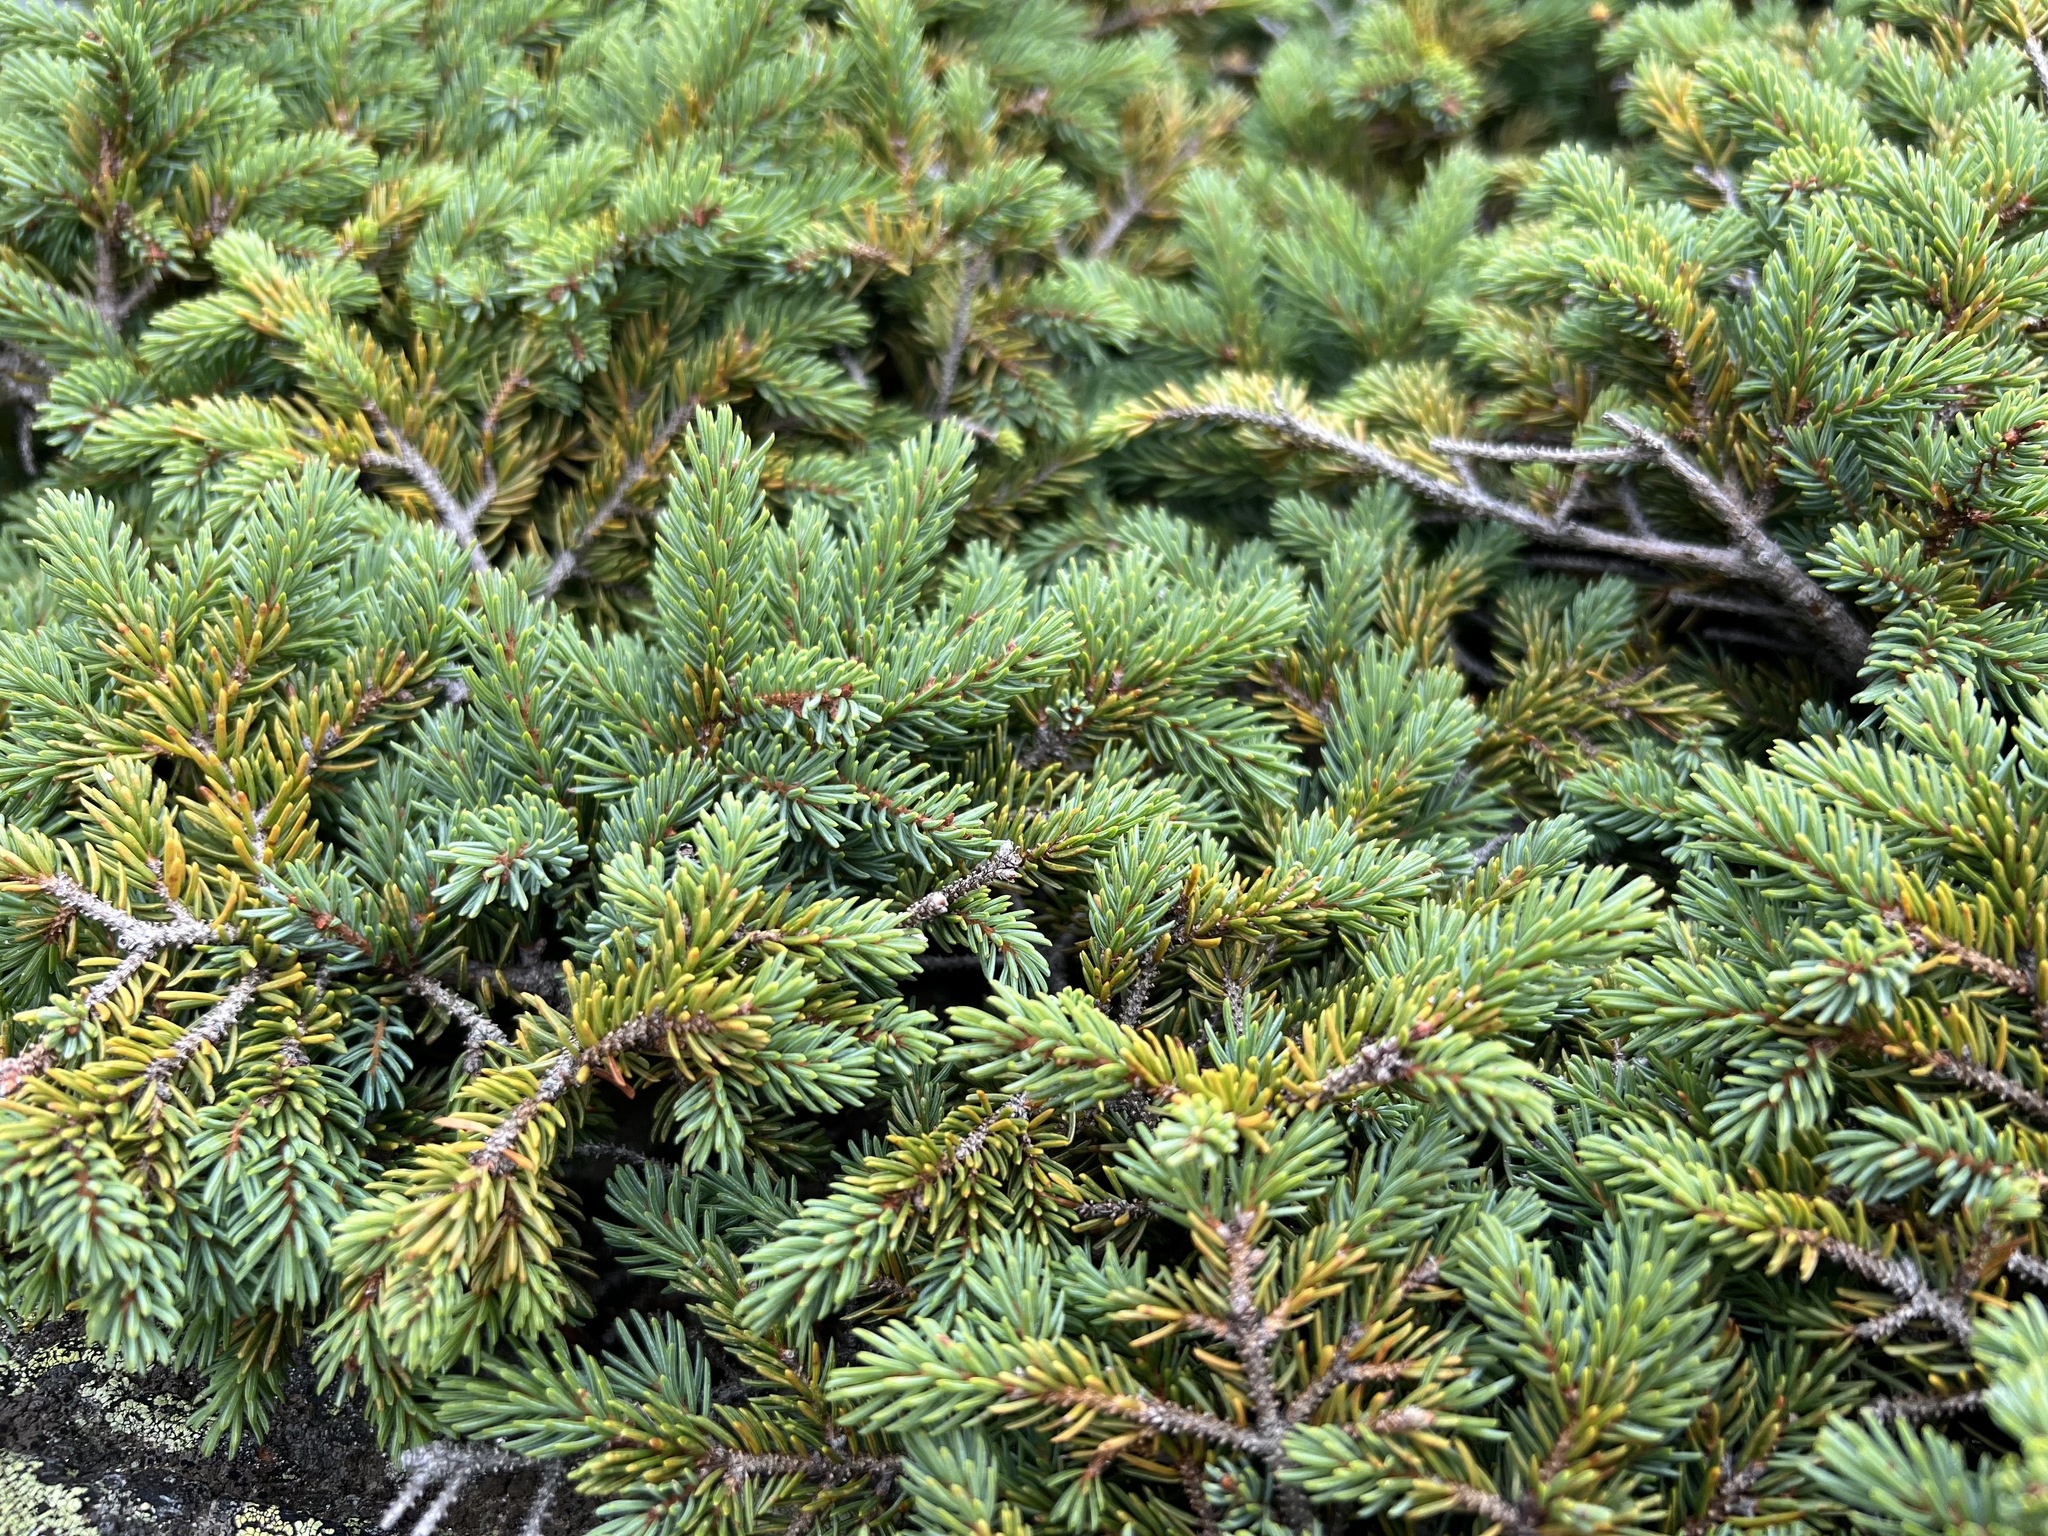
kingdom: Plantae
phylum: Tracheophyta
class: Pinopsida
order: Pinales
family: Pinaceae
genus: Picea
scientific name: Picea mariana
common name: Black spruce
